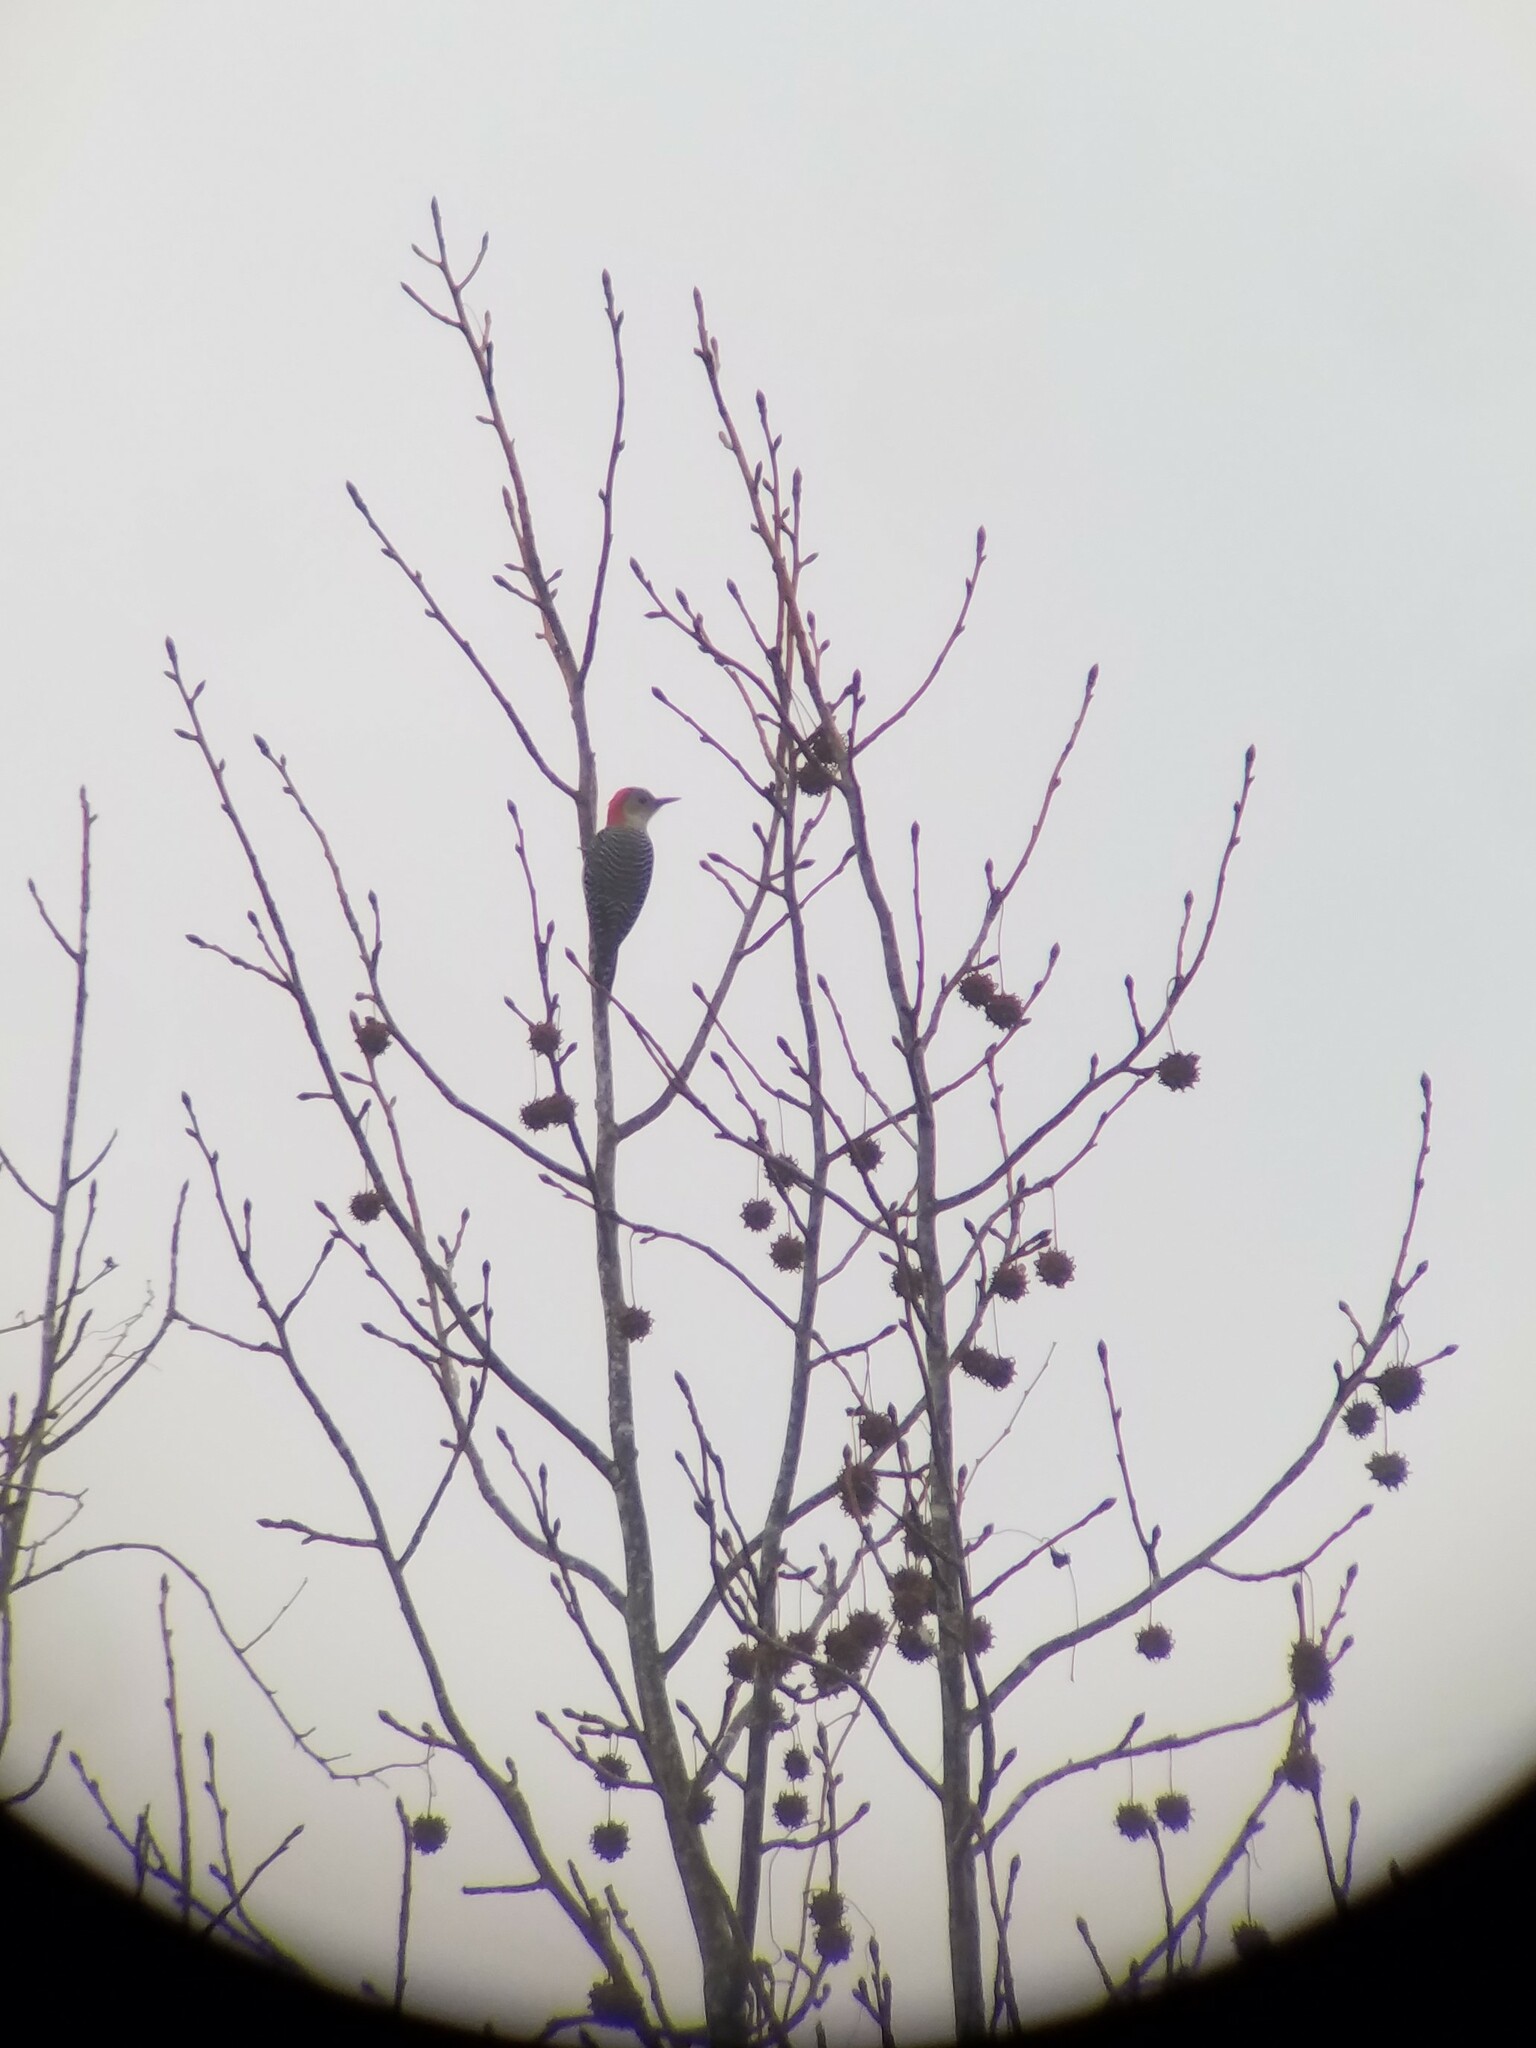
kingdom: Plantae
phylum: Tracheophyta
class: Magnoliopsida
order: Saxifragales
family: Altingiaceae
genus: Liquidambar
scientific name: Liquidambar styraciflua
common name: Sweet gum
